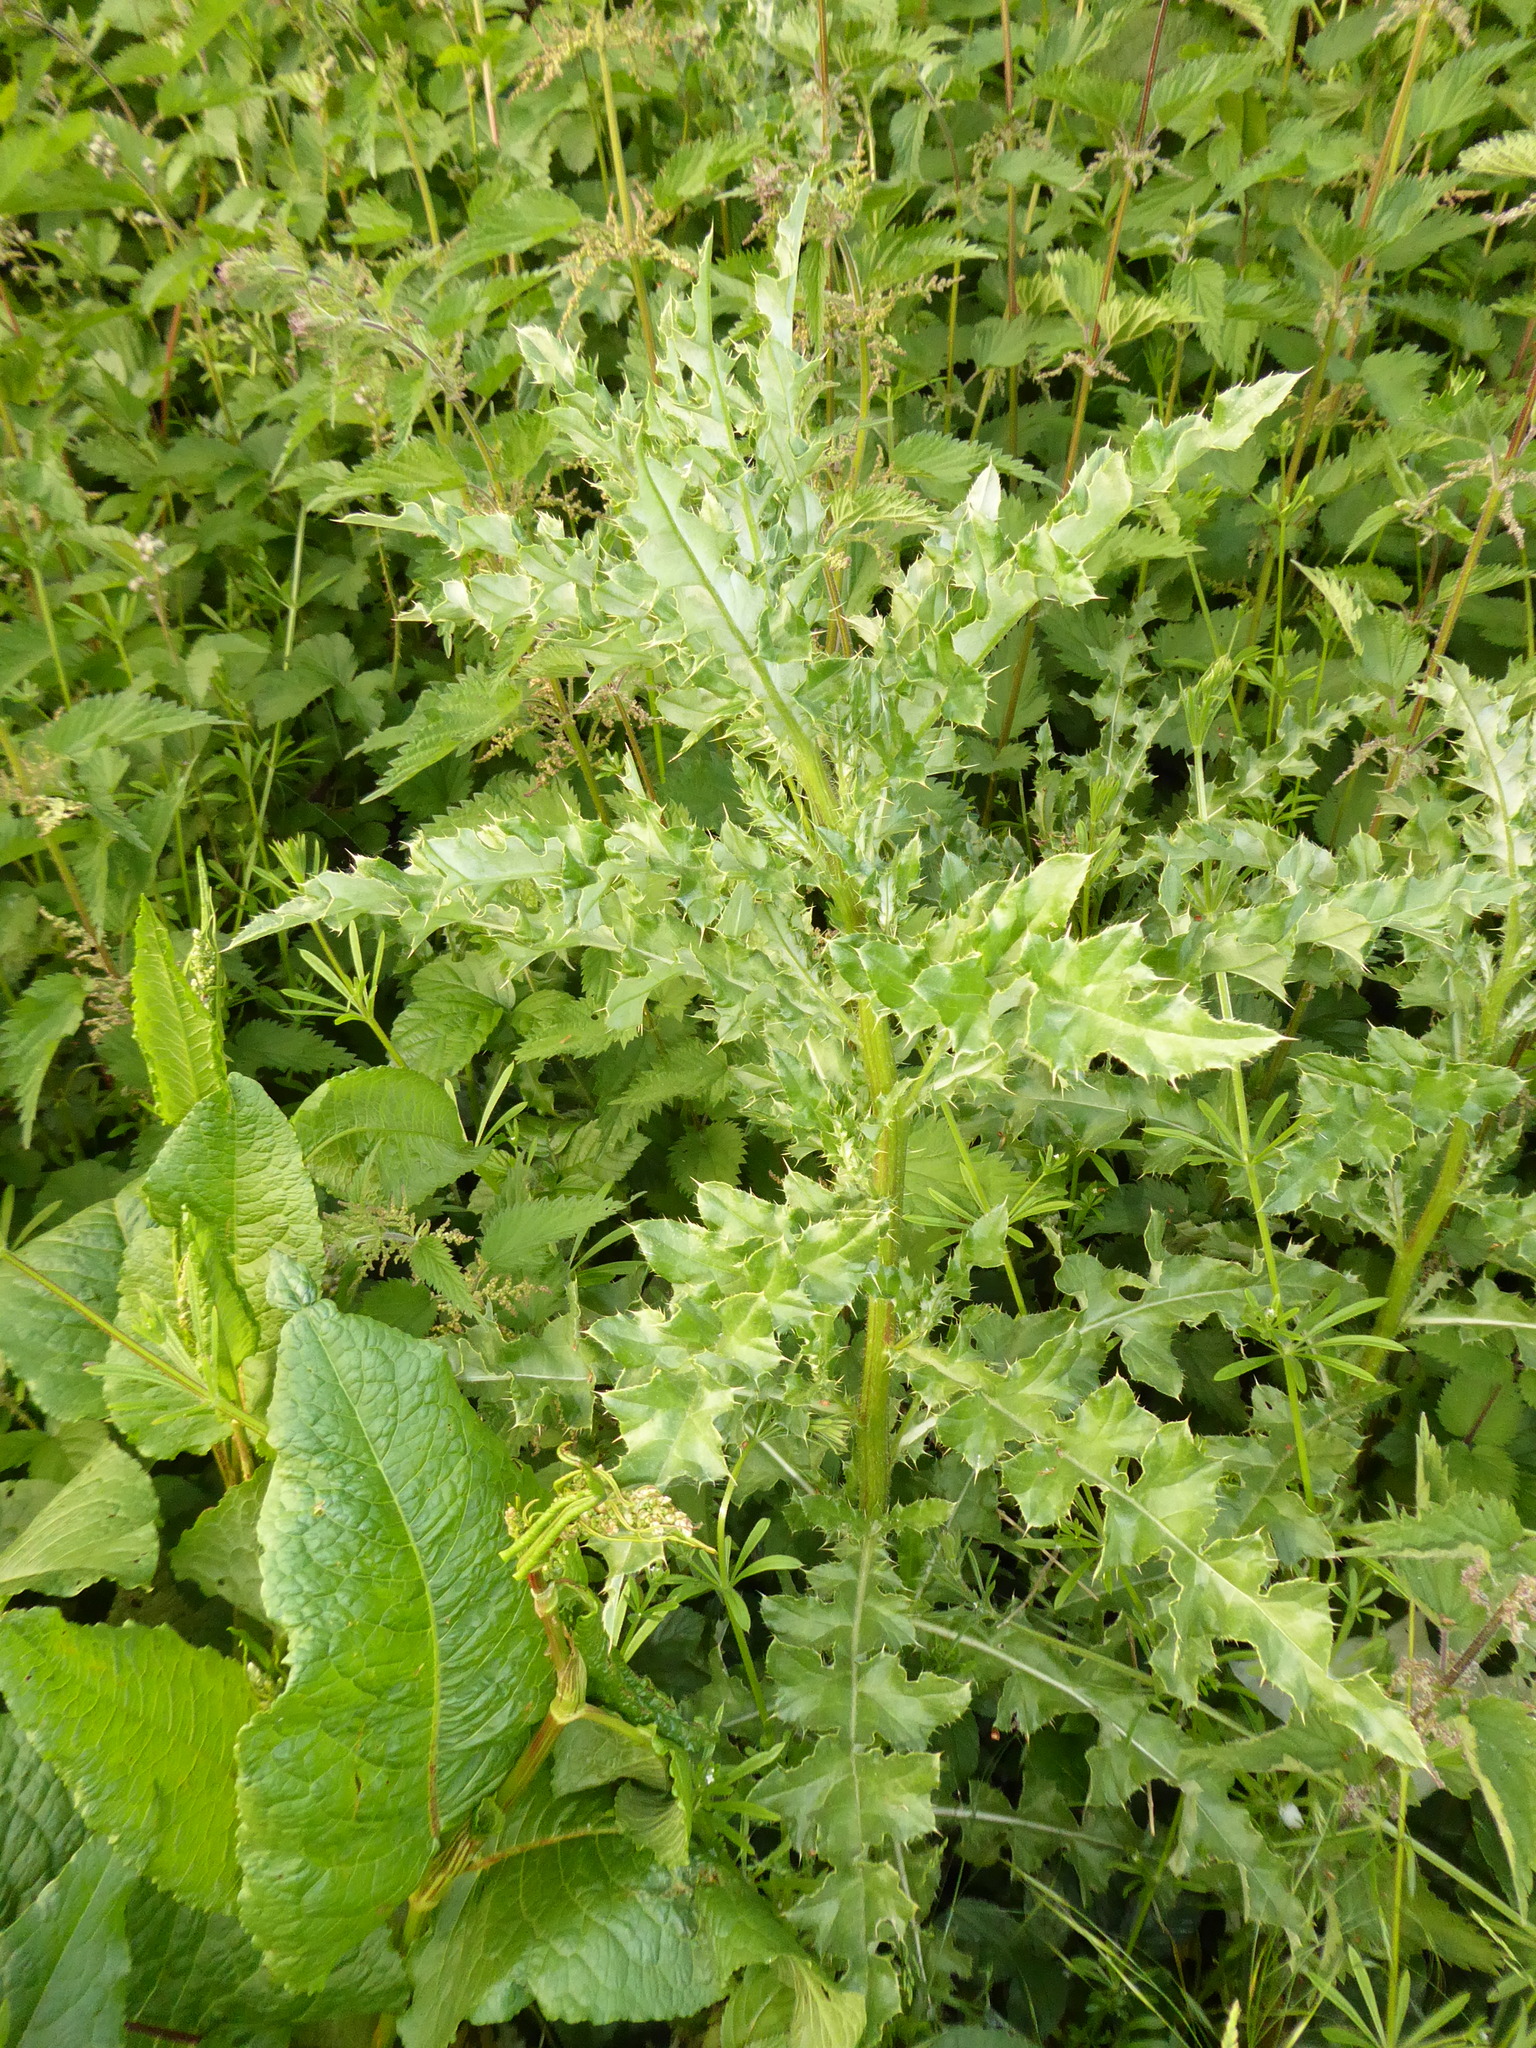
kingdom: Plantae
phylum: Tracheophyta
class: Magnoliopsida
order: Asterales
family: Asteraceae
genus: Cirsium
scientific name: Cirsium arvense
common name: Creeping thistle
